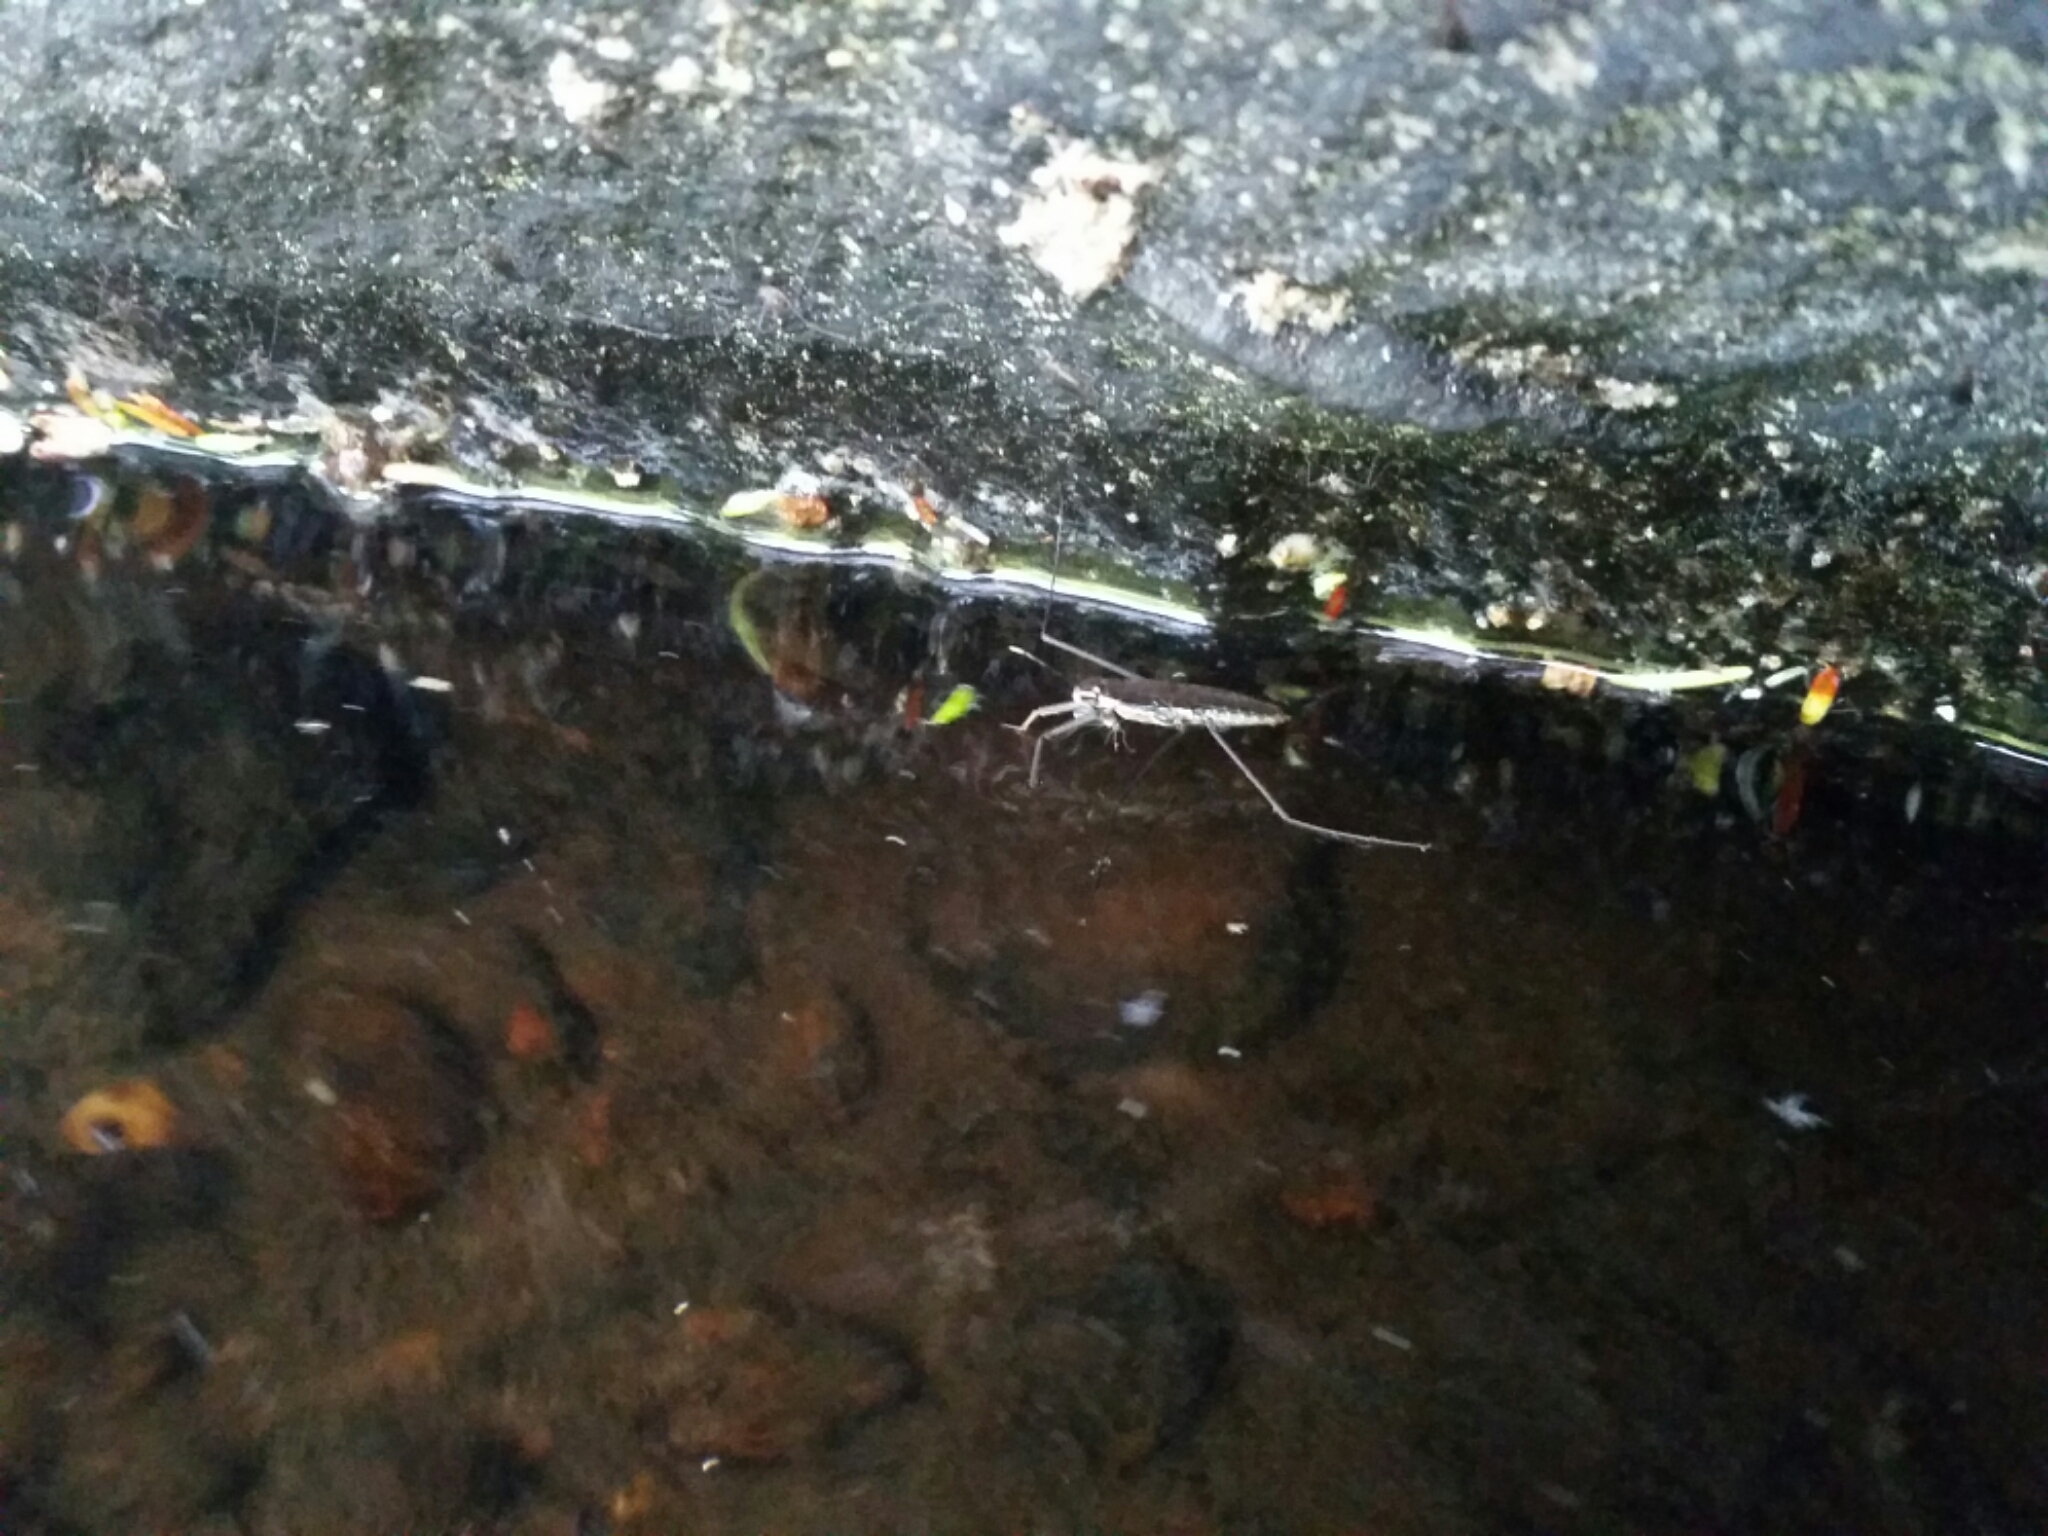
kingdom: Animalia
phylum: Arthropoda
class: Insecta
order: Hemiptera
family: Gerridae
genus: Aquarius
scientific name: Aquarius remigis
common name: Common water strider
